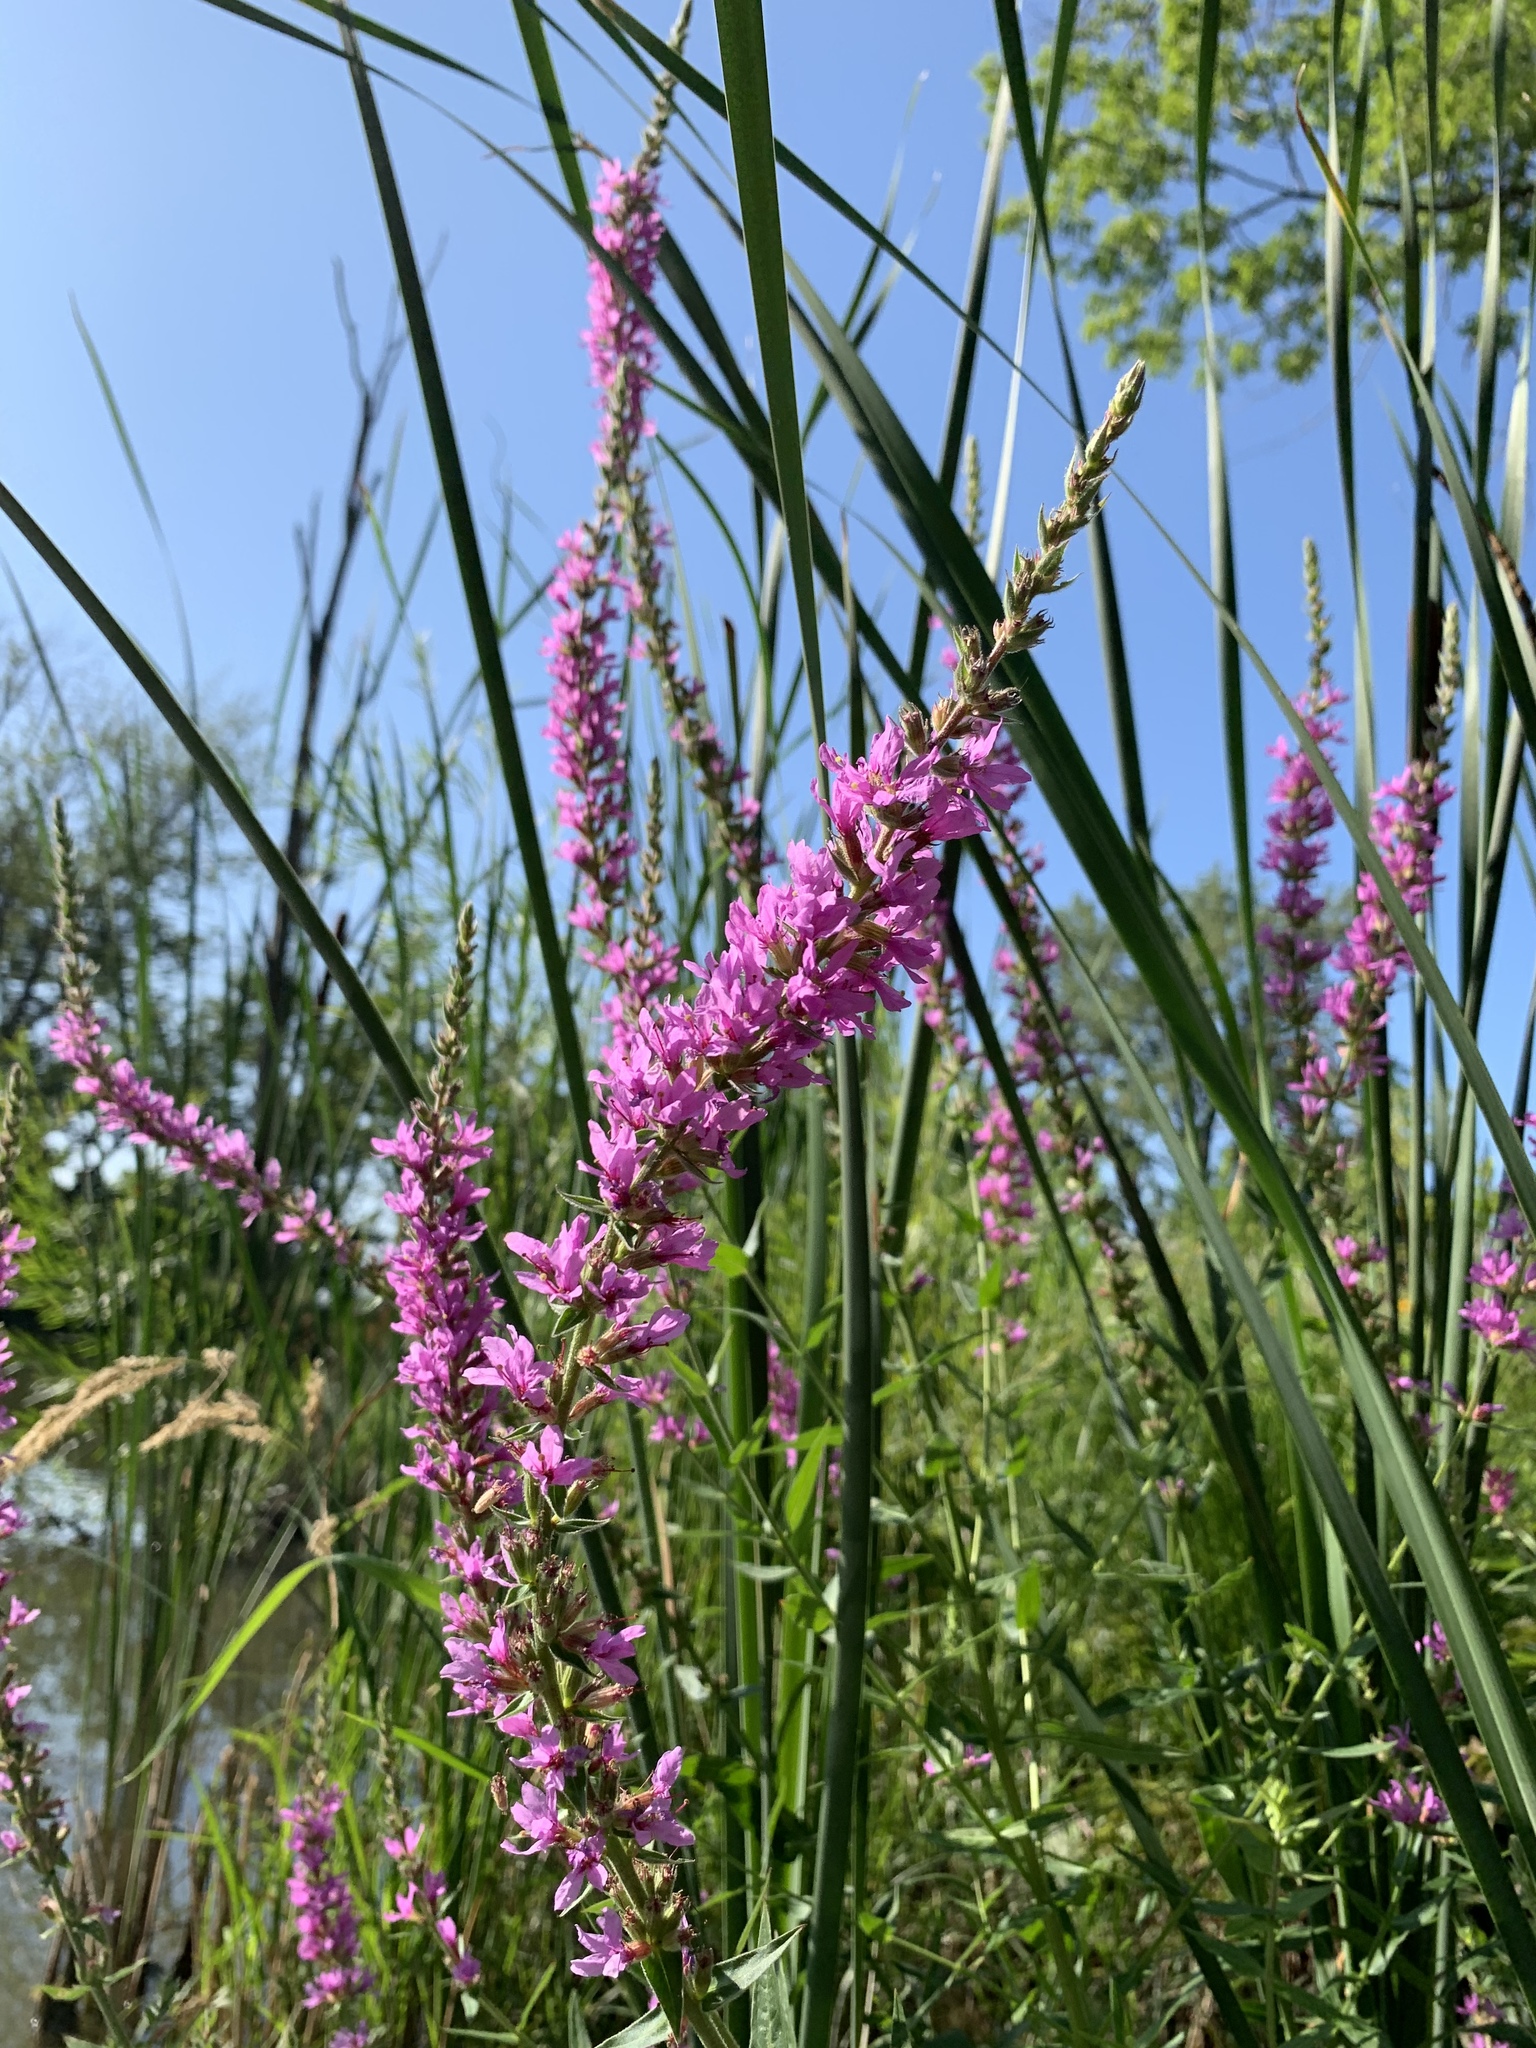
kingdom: Plantae
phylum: Tracheophyta
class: Magnoliopsida
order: Myrtales
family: Lythraceae
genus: Lythrum
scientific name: Lythrum salicaria
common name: Purple loosestrife
